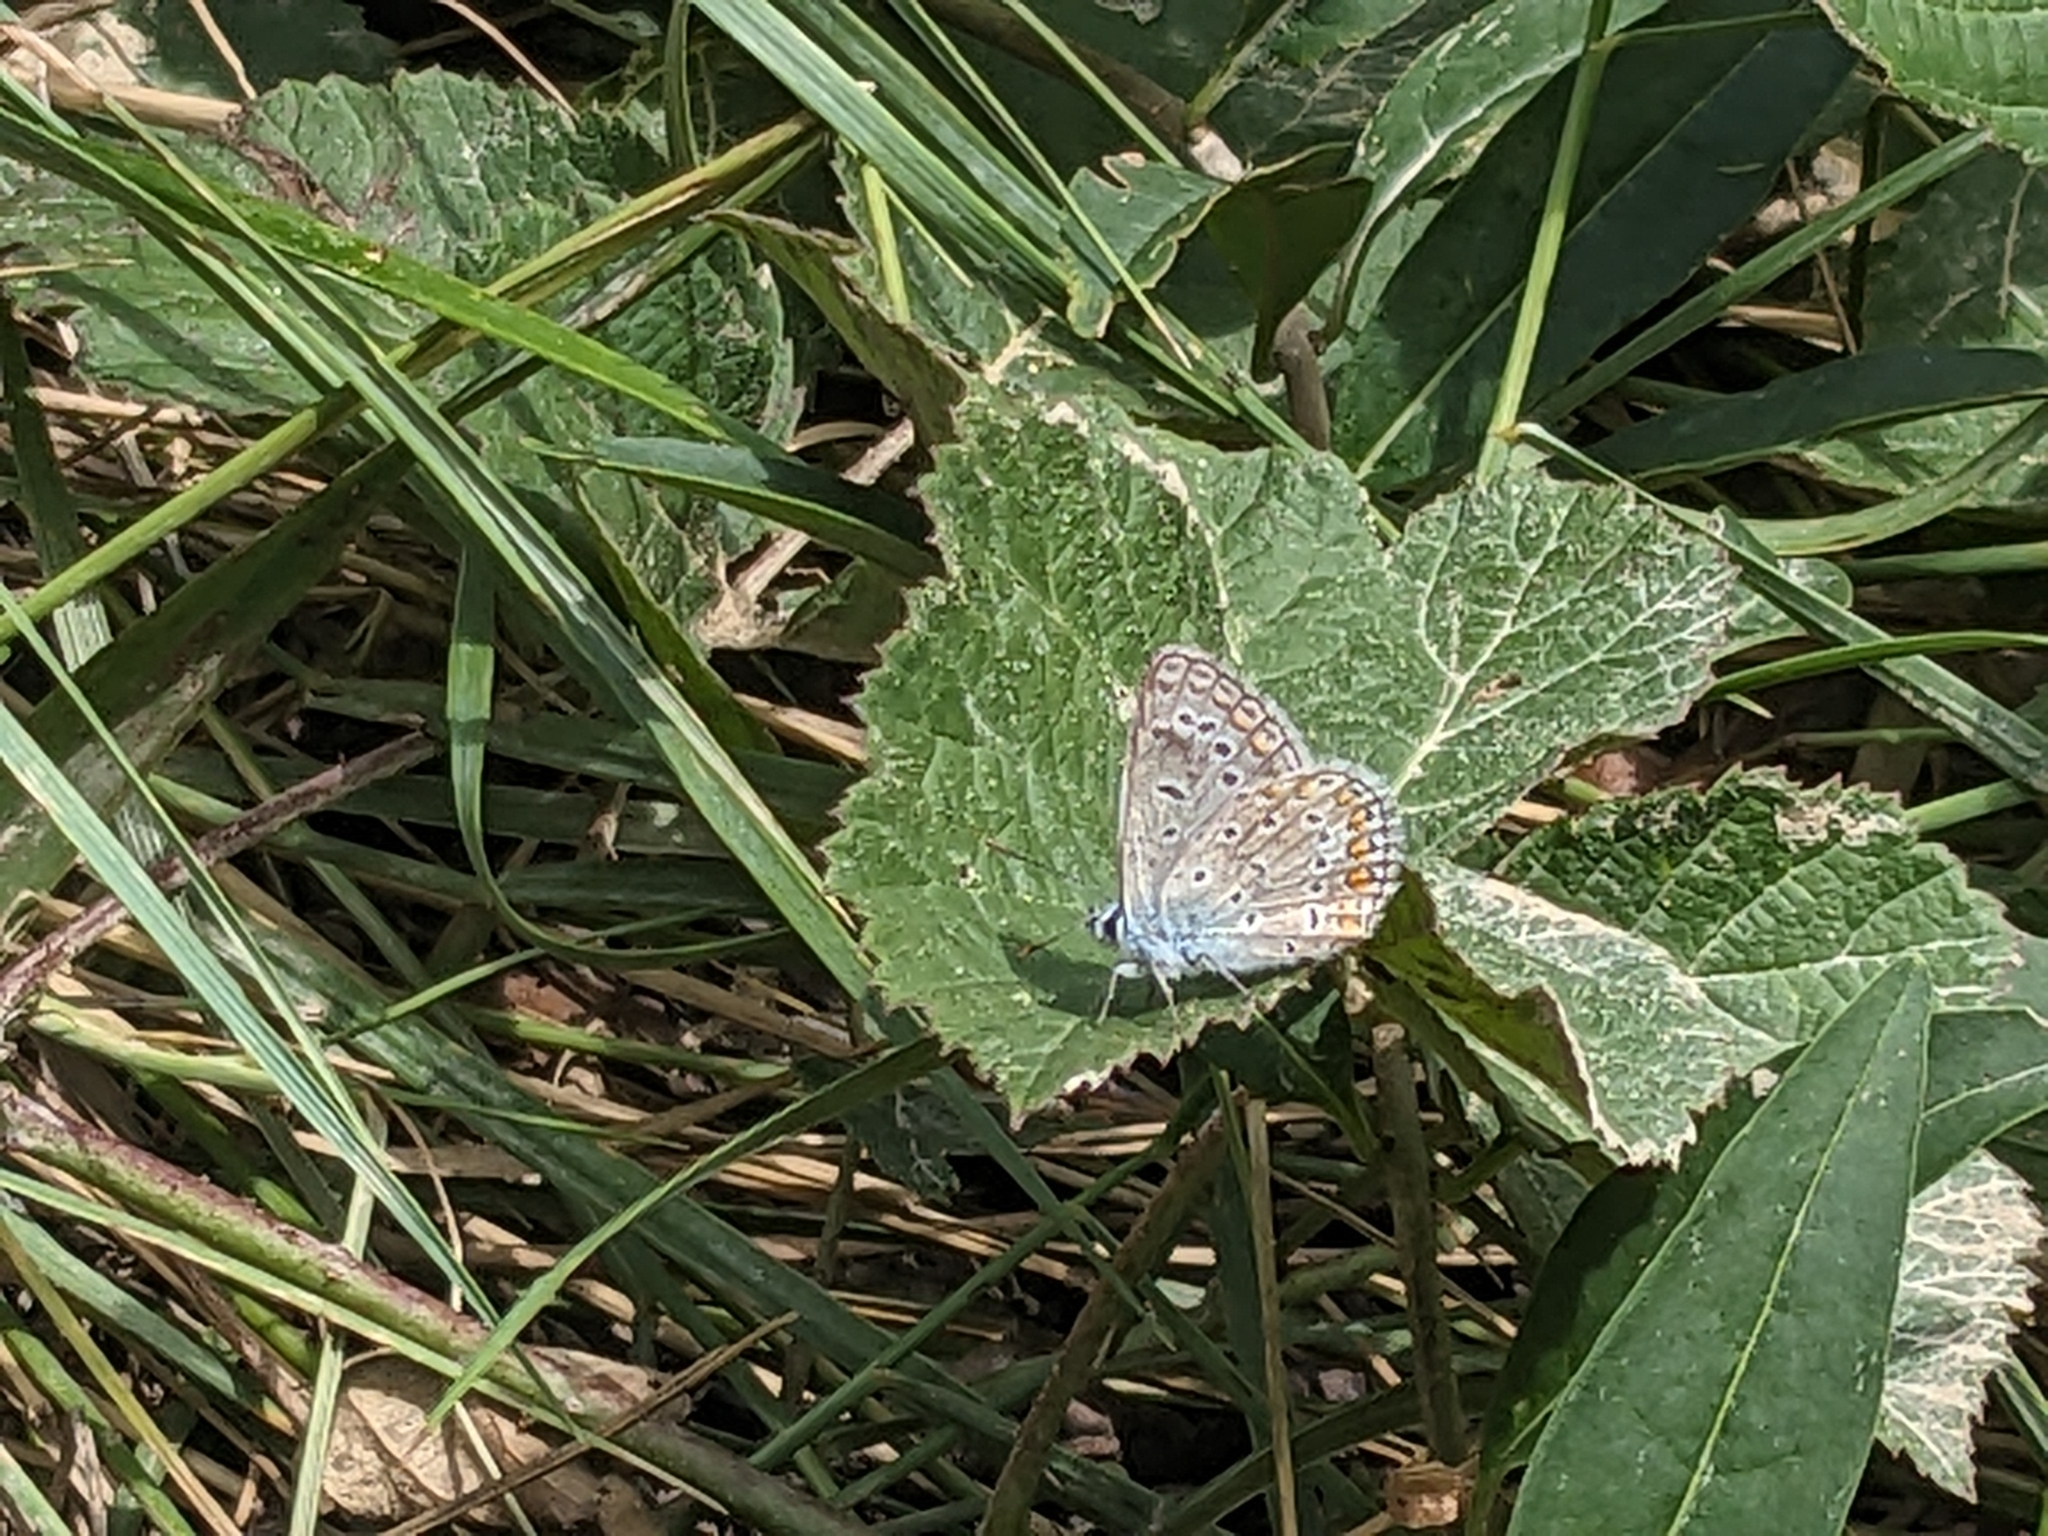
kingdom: Animalia
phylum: Arthropoda
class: Insecta
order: Lepidoptera
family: Lycaenidae
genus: Polyommatus
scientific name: Polyommatus icarus
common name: Common blue
